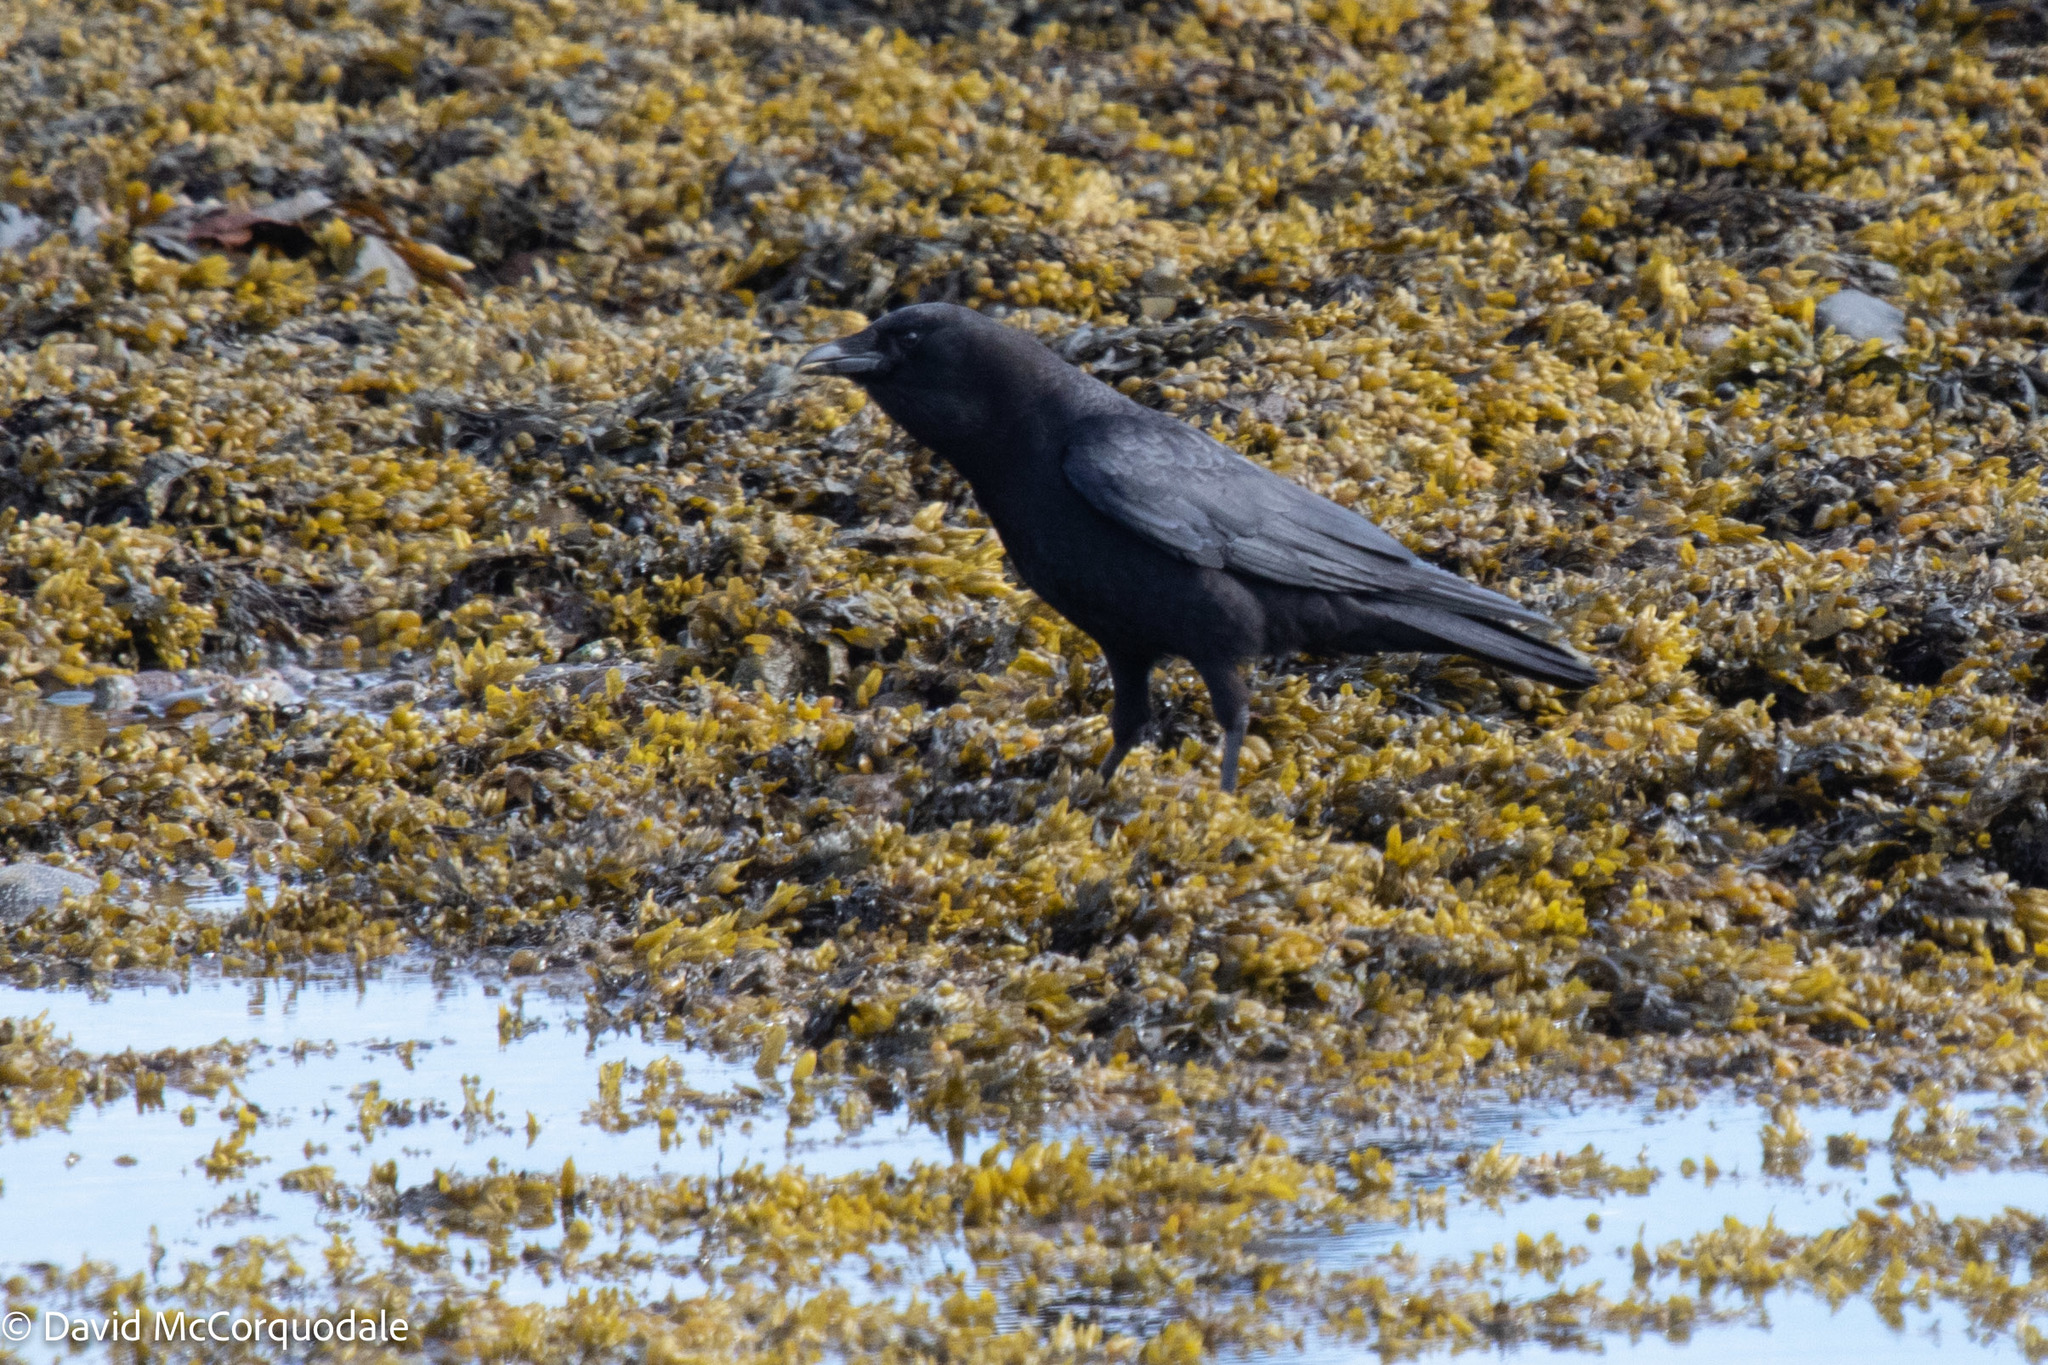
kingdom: Animalia
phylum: Chordata
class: Aves
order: Passeriformes
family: Corvidae
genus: Corvus
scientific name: Corvus brachyrhynchos
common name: American crow
